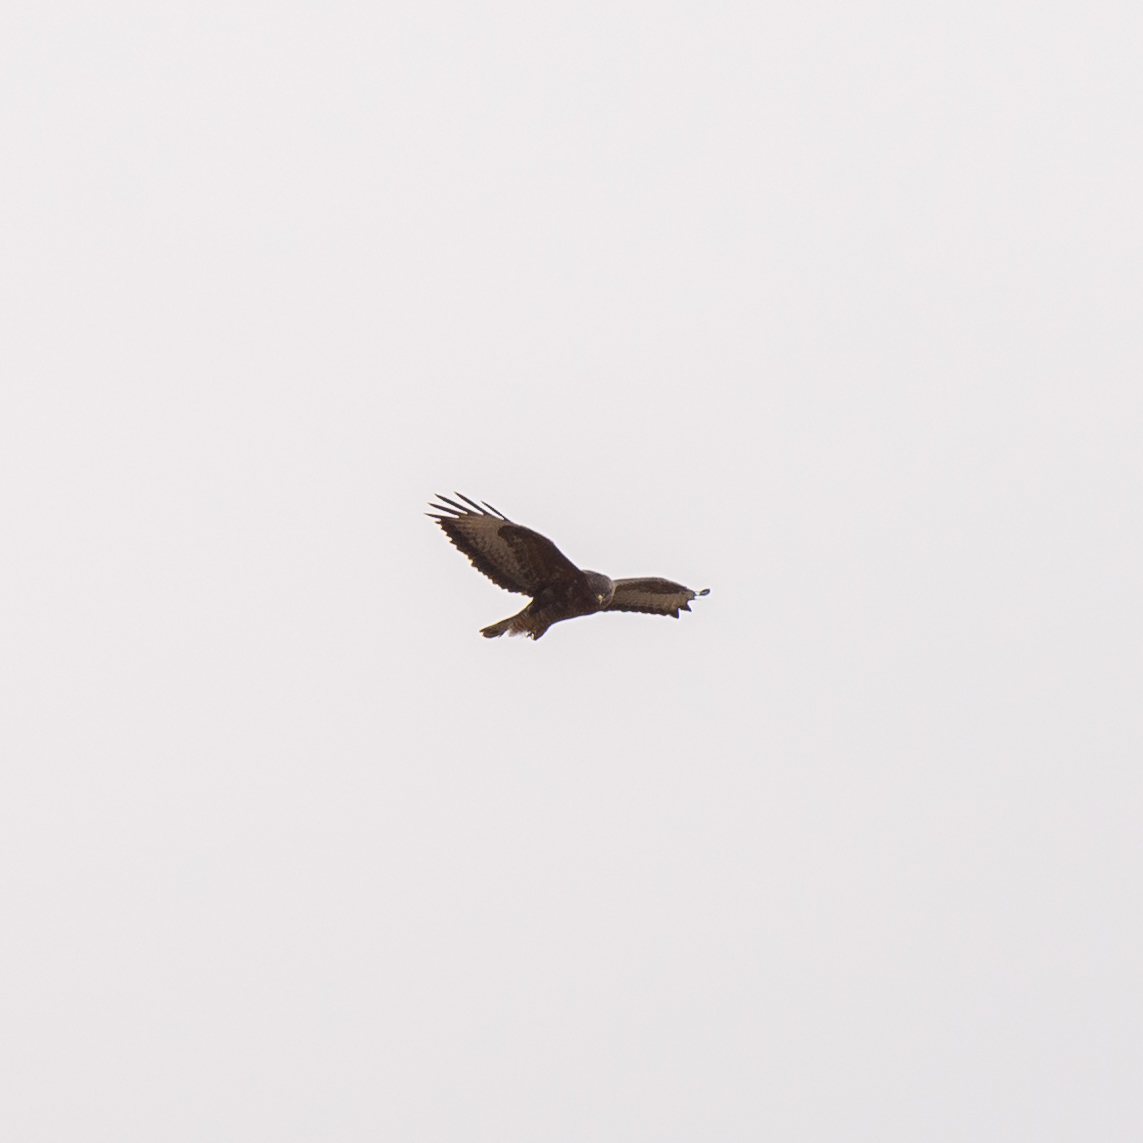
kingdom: Animalia
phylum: Chordata
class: Aves
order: Accipitriformes
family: Accipitridae
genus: Buteo
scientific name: Buteo buteo
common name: Common buzzard
